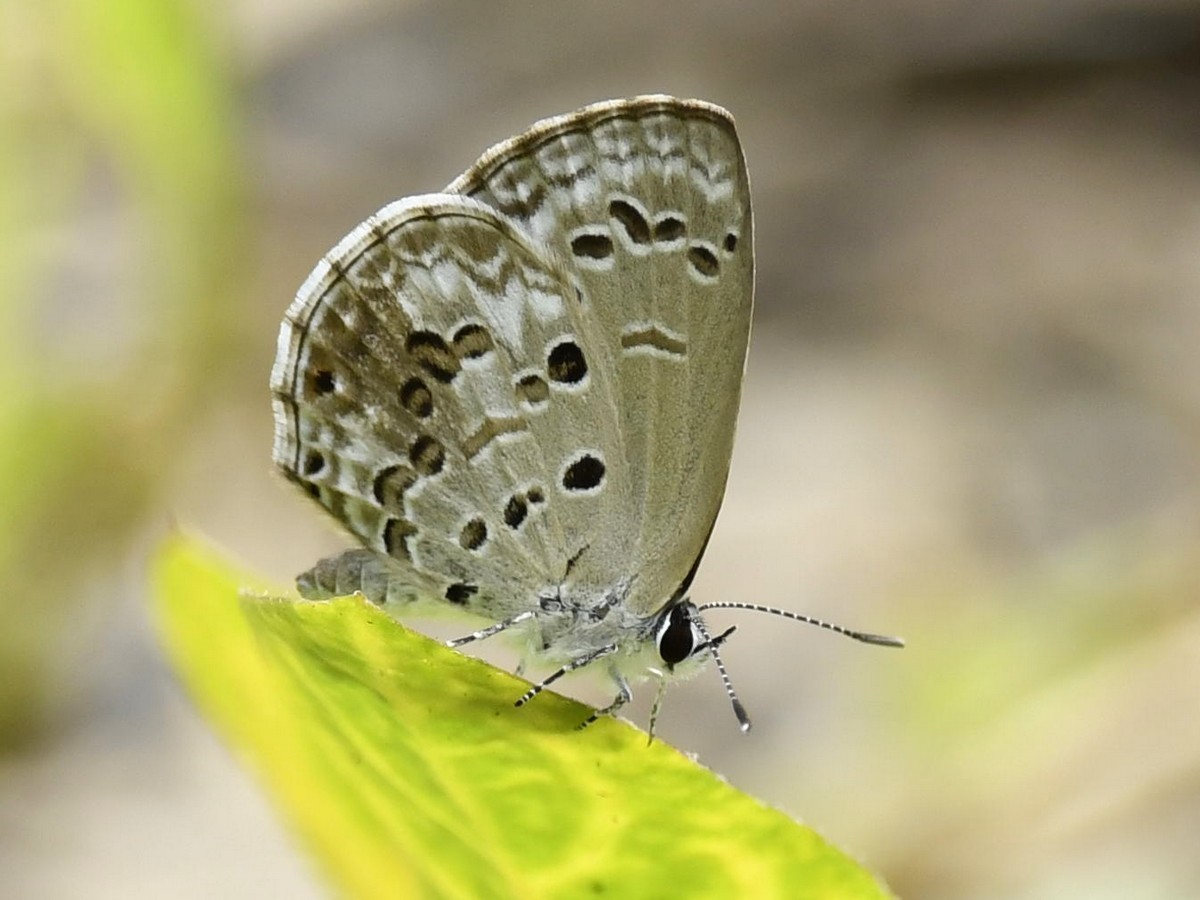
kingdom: Animalia
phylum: Arthropoda
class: Insecta
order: Lepidoptera
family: Lycaenidae
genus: Chilades
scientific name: Chilades laius
